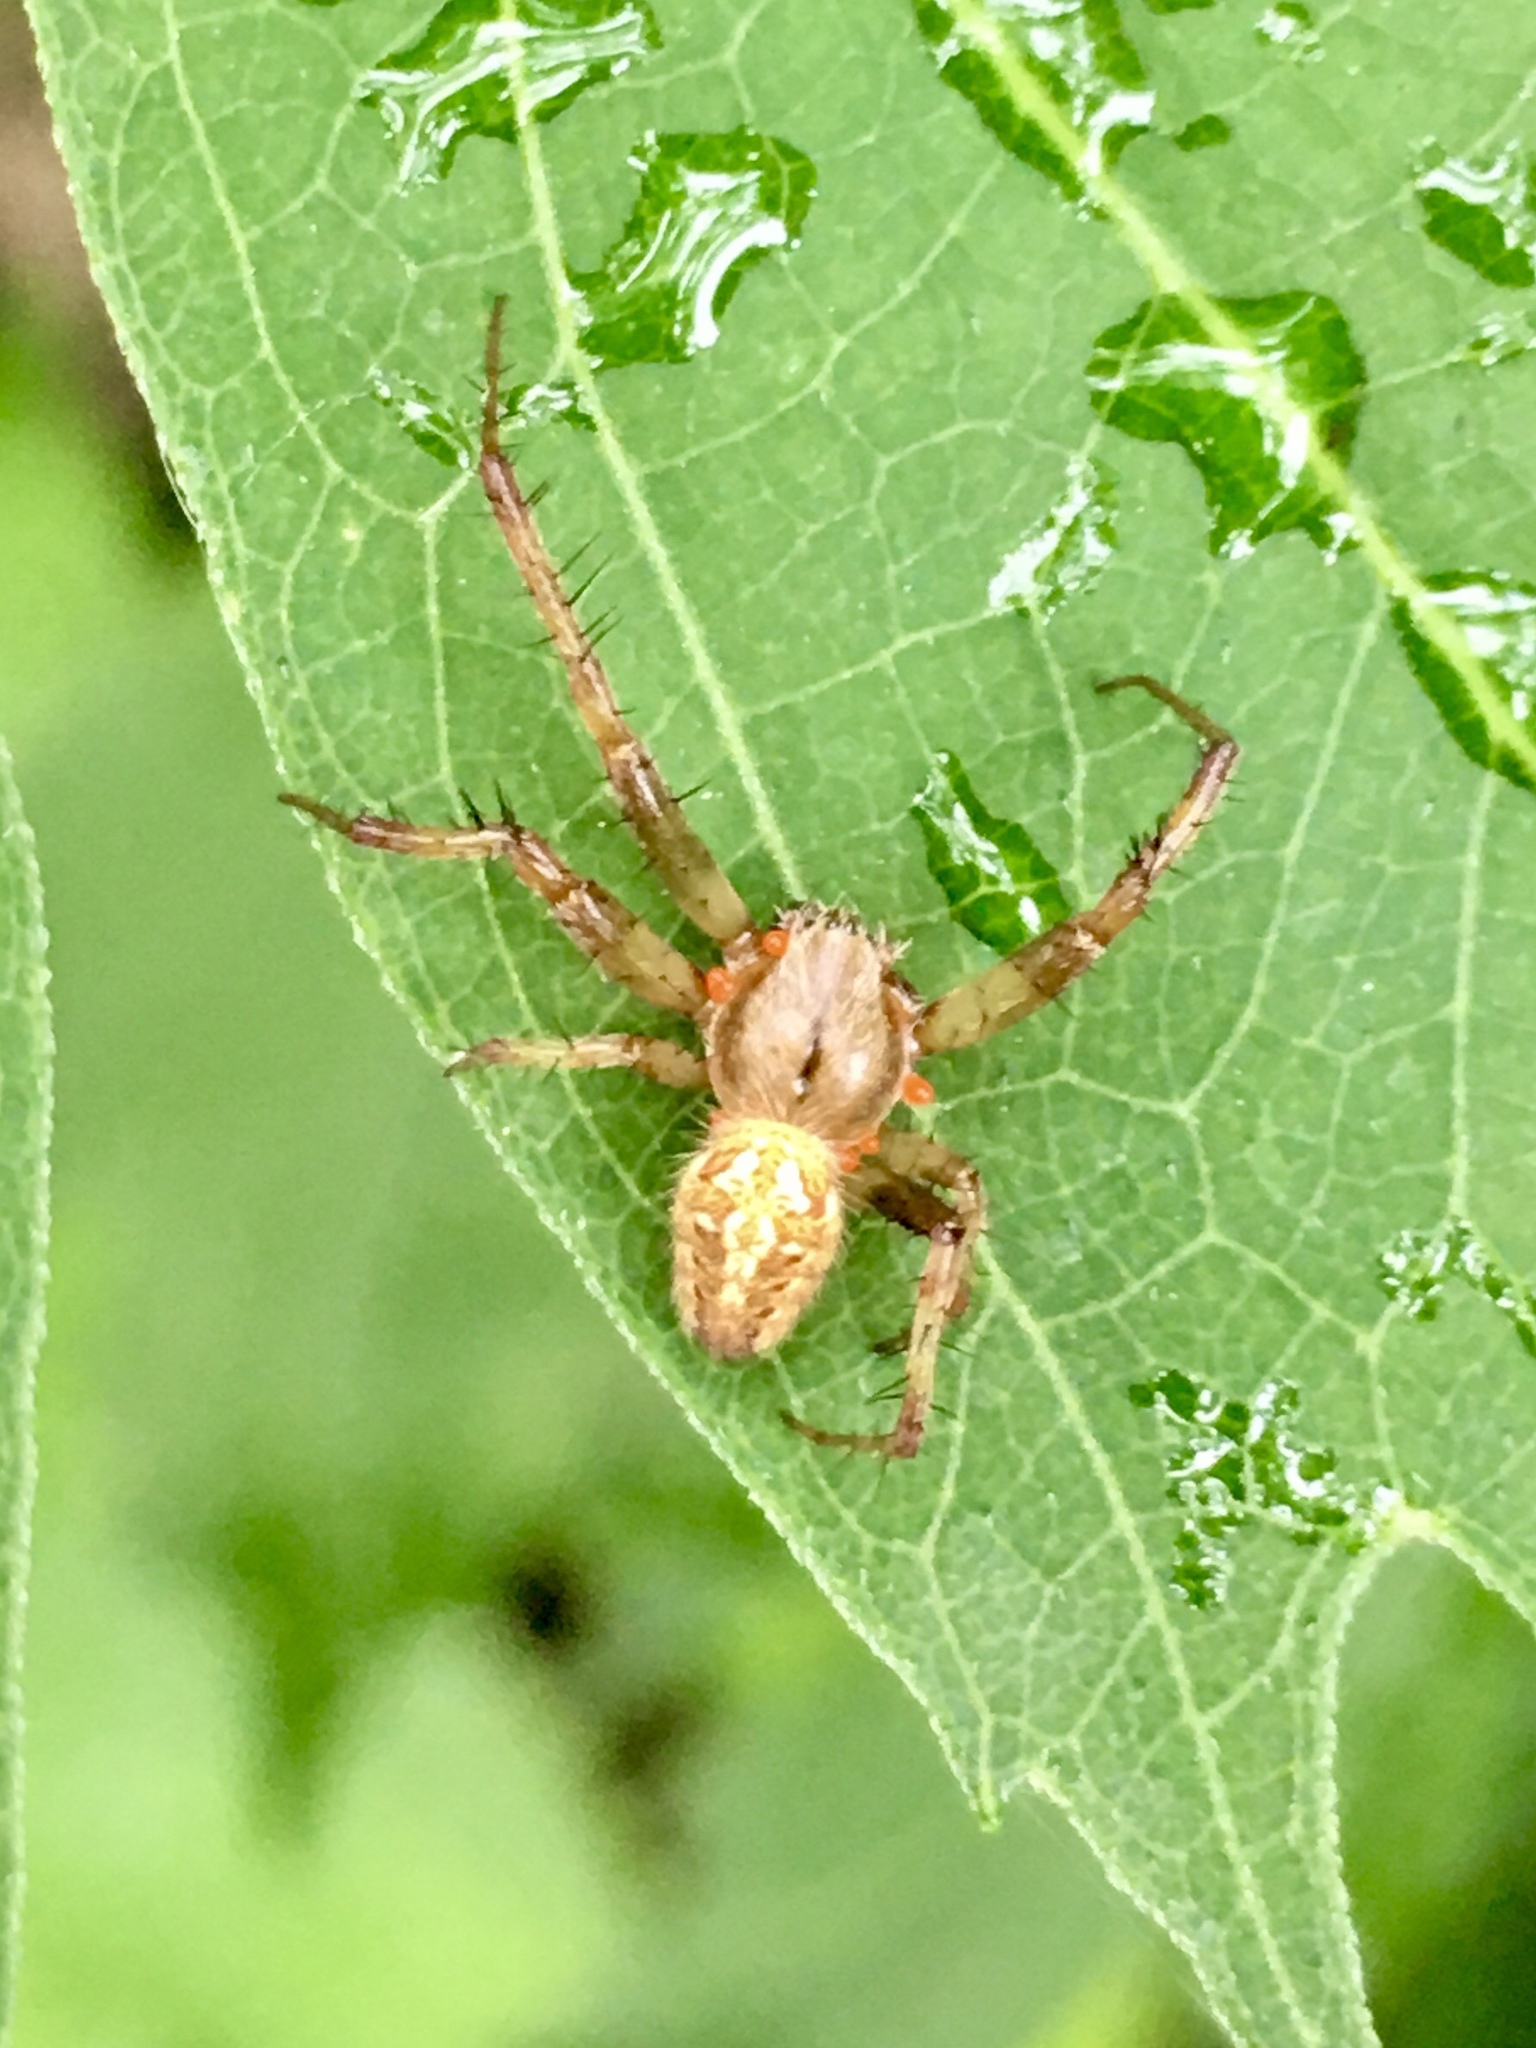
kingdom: Animalia
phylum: Arthropoda
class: Arachnida
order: Araneae
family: Araneidae
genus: Neoscona
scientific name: Neoscona arabesca
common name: Orb weavers
